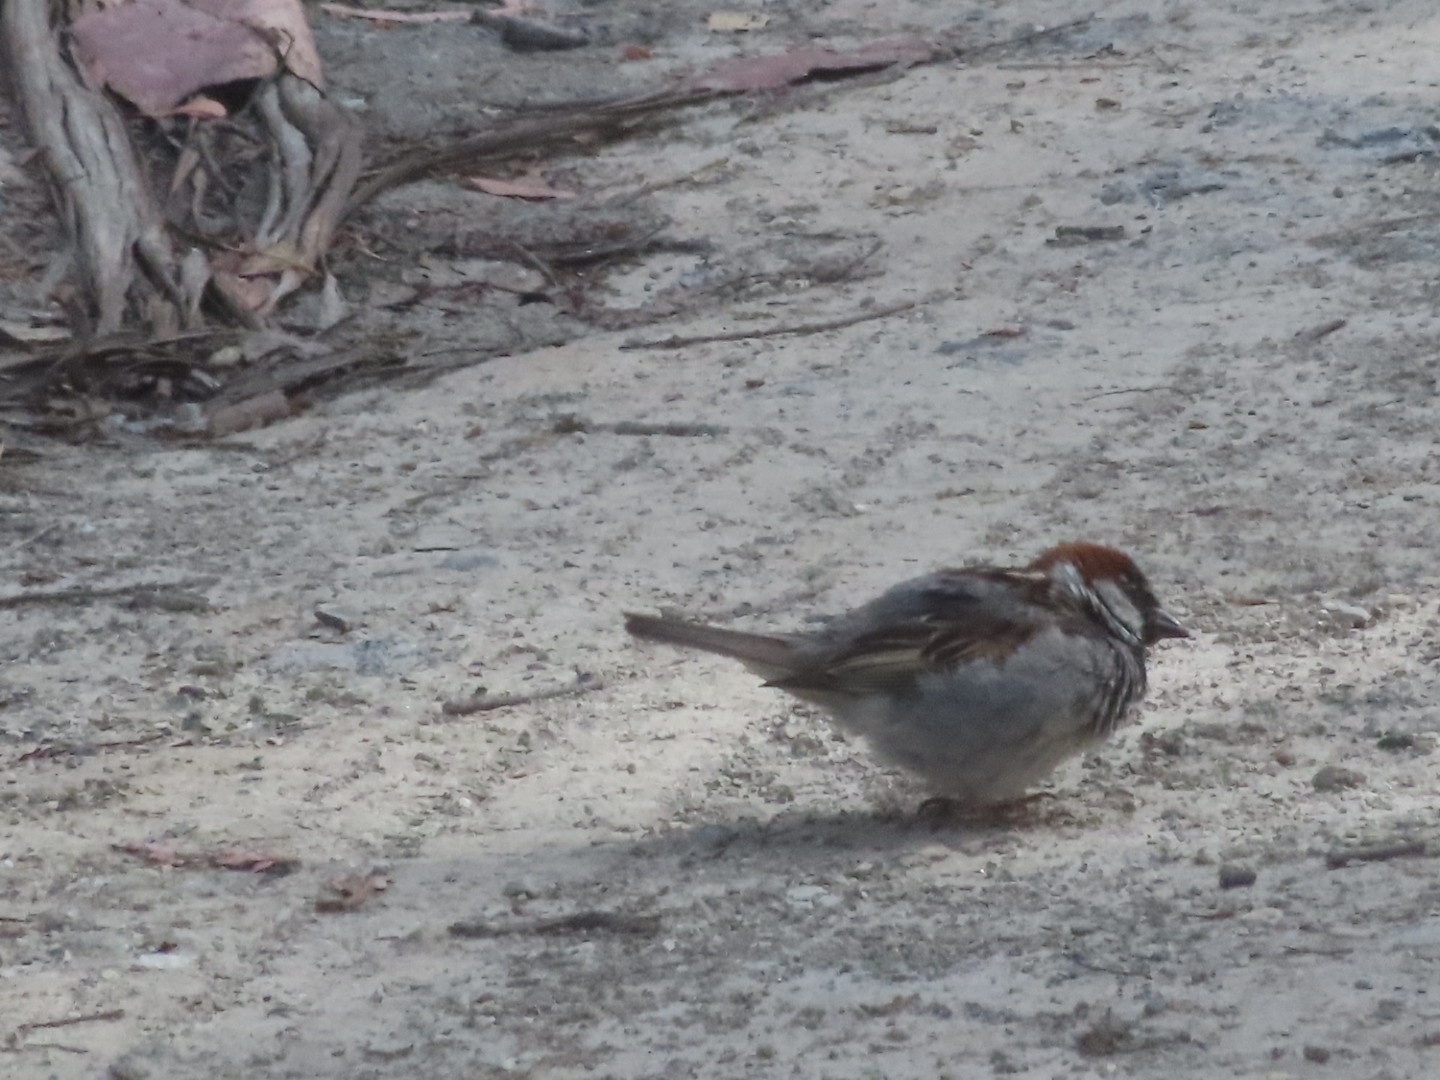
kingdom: Animalia
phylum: Chordata
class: Aves
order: Passeriformes
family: Passeridae
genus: Passer
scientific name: Passer domesticus
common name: House sparrow
